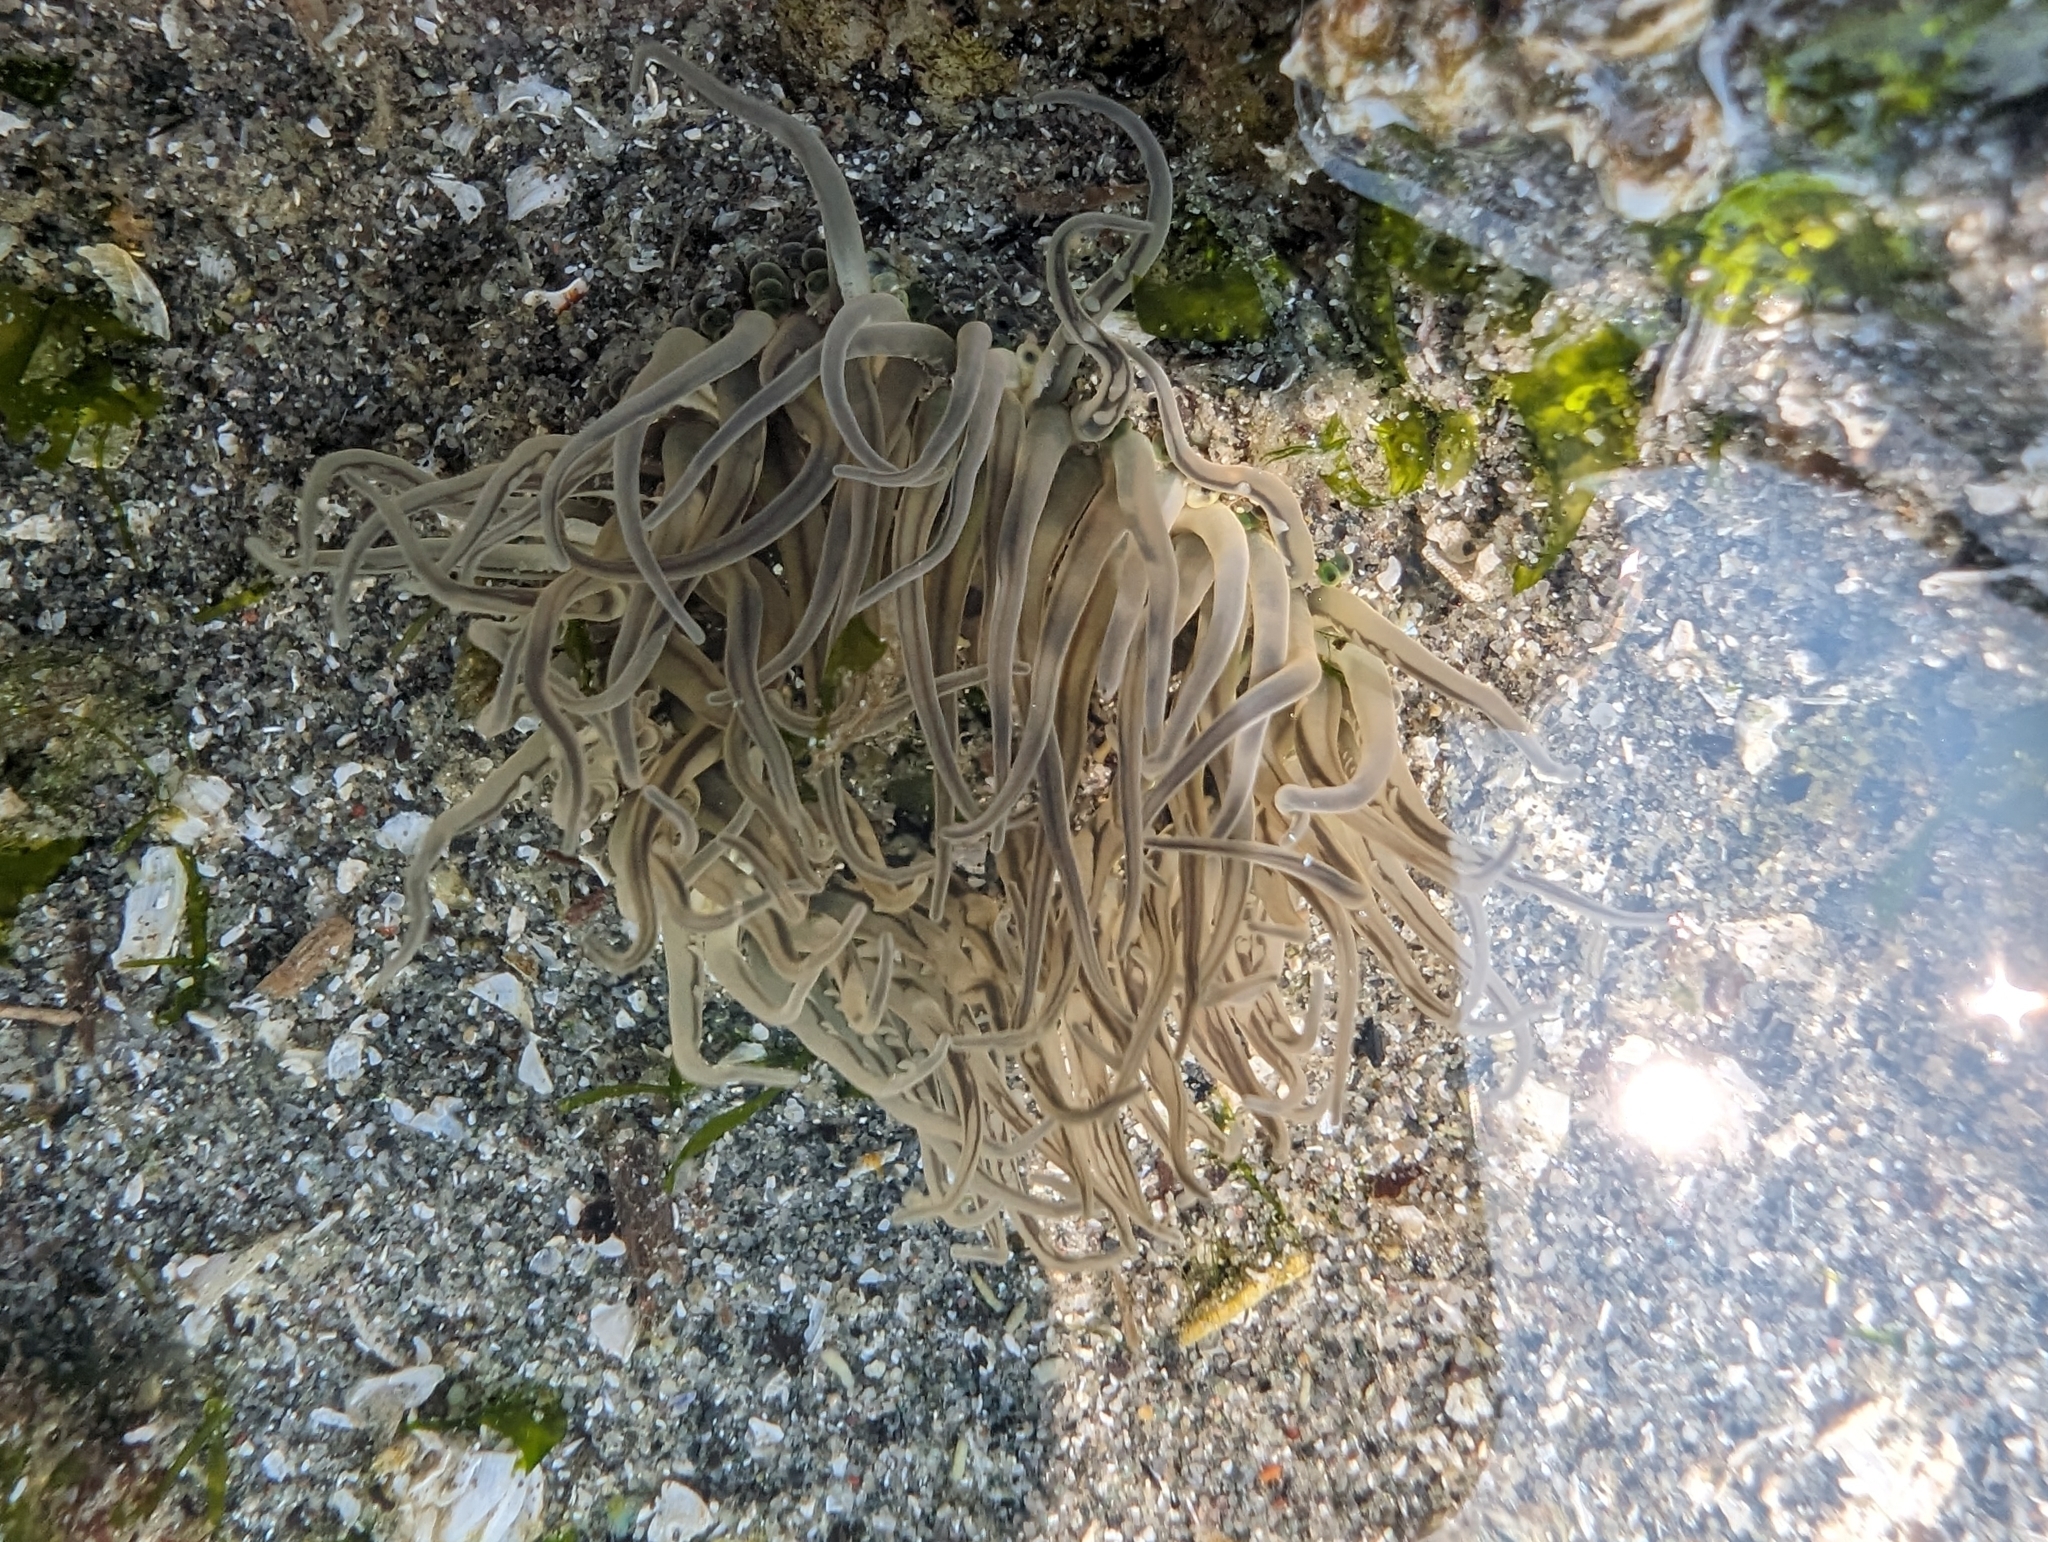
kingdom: Animalia
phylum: Cnidaria
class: Anthozoa
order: Actiniaria
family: Actiniidae
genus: Anthopleura
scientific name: Anthopleura artemisia
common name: Buried sea anemone
